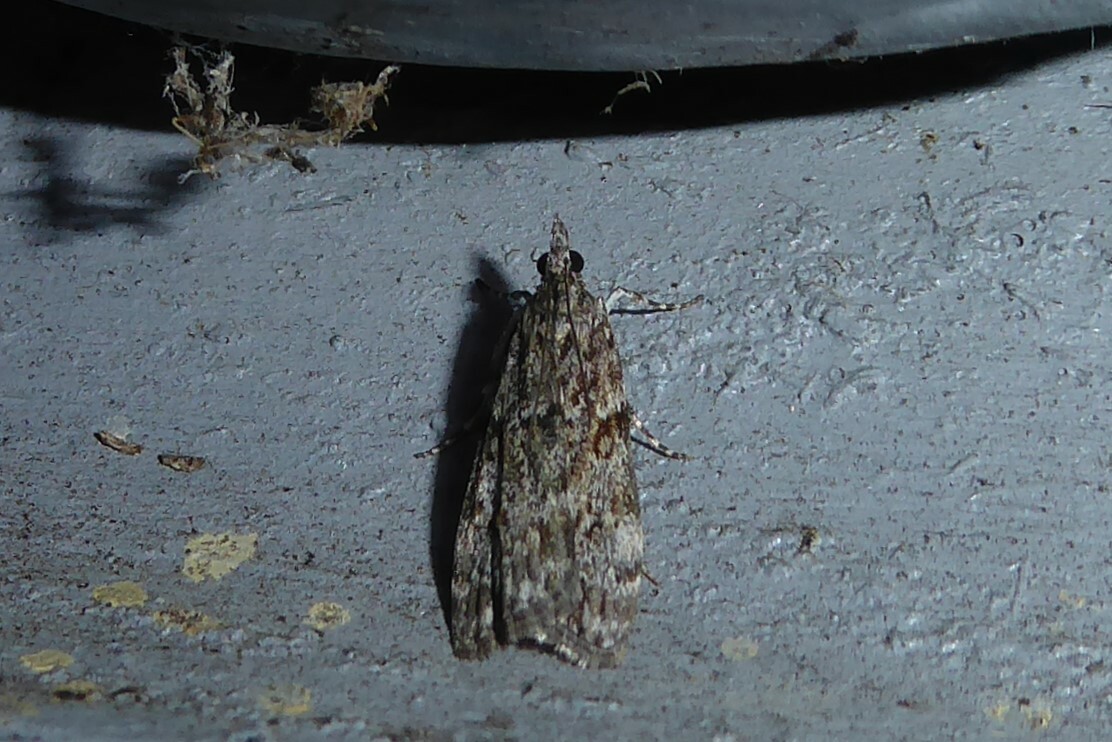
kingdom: Animalia
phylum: Arthropoda
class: Insecta
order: Lepidoptera
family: Crambidae
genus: Eudonia
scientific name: Eudonia cymatias
